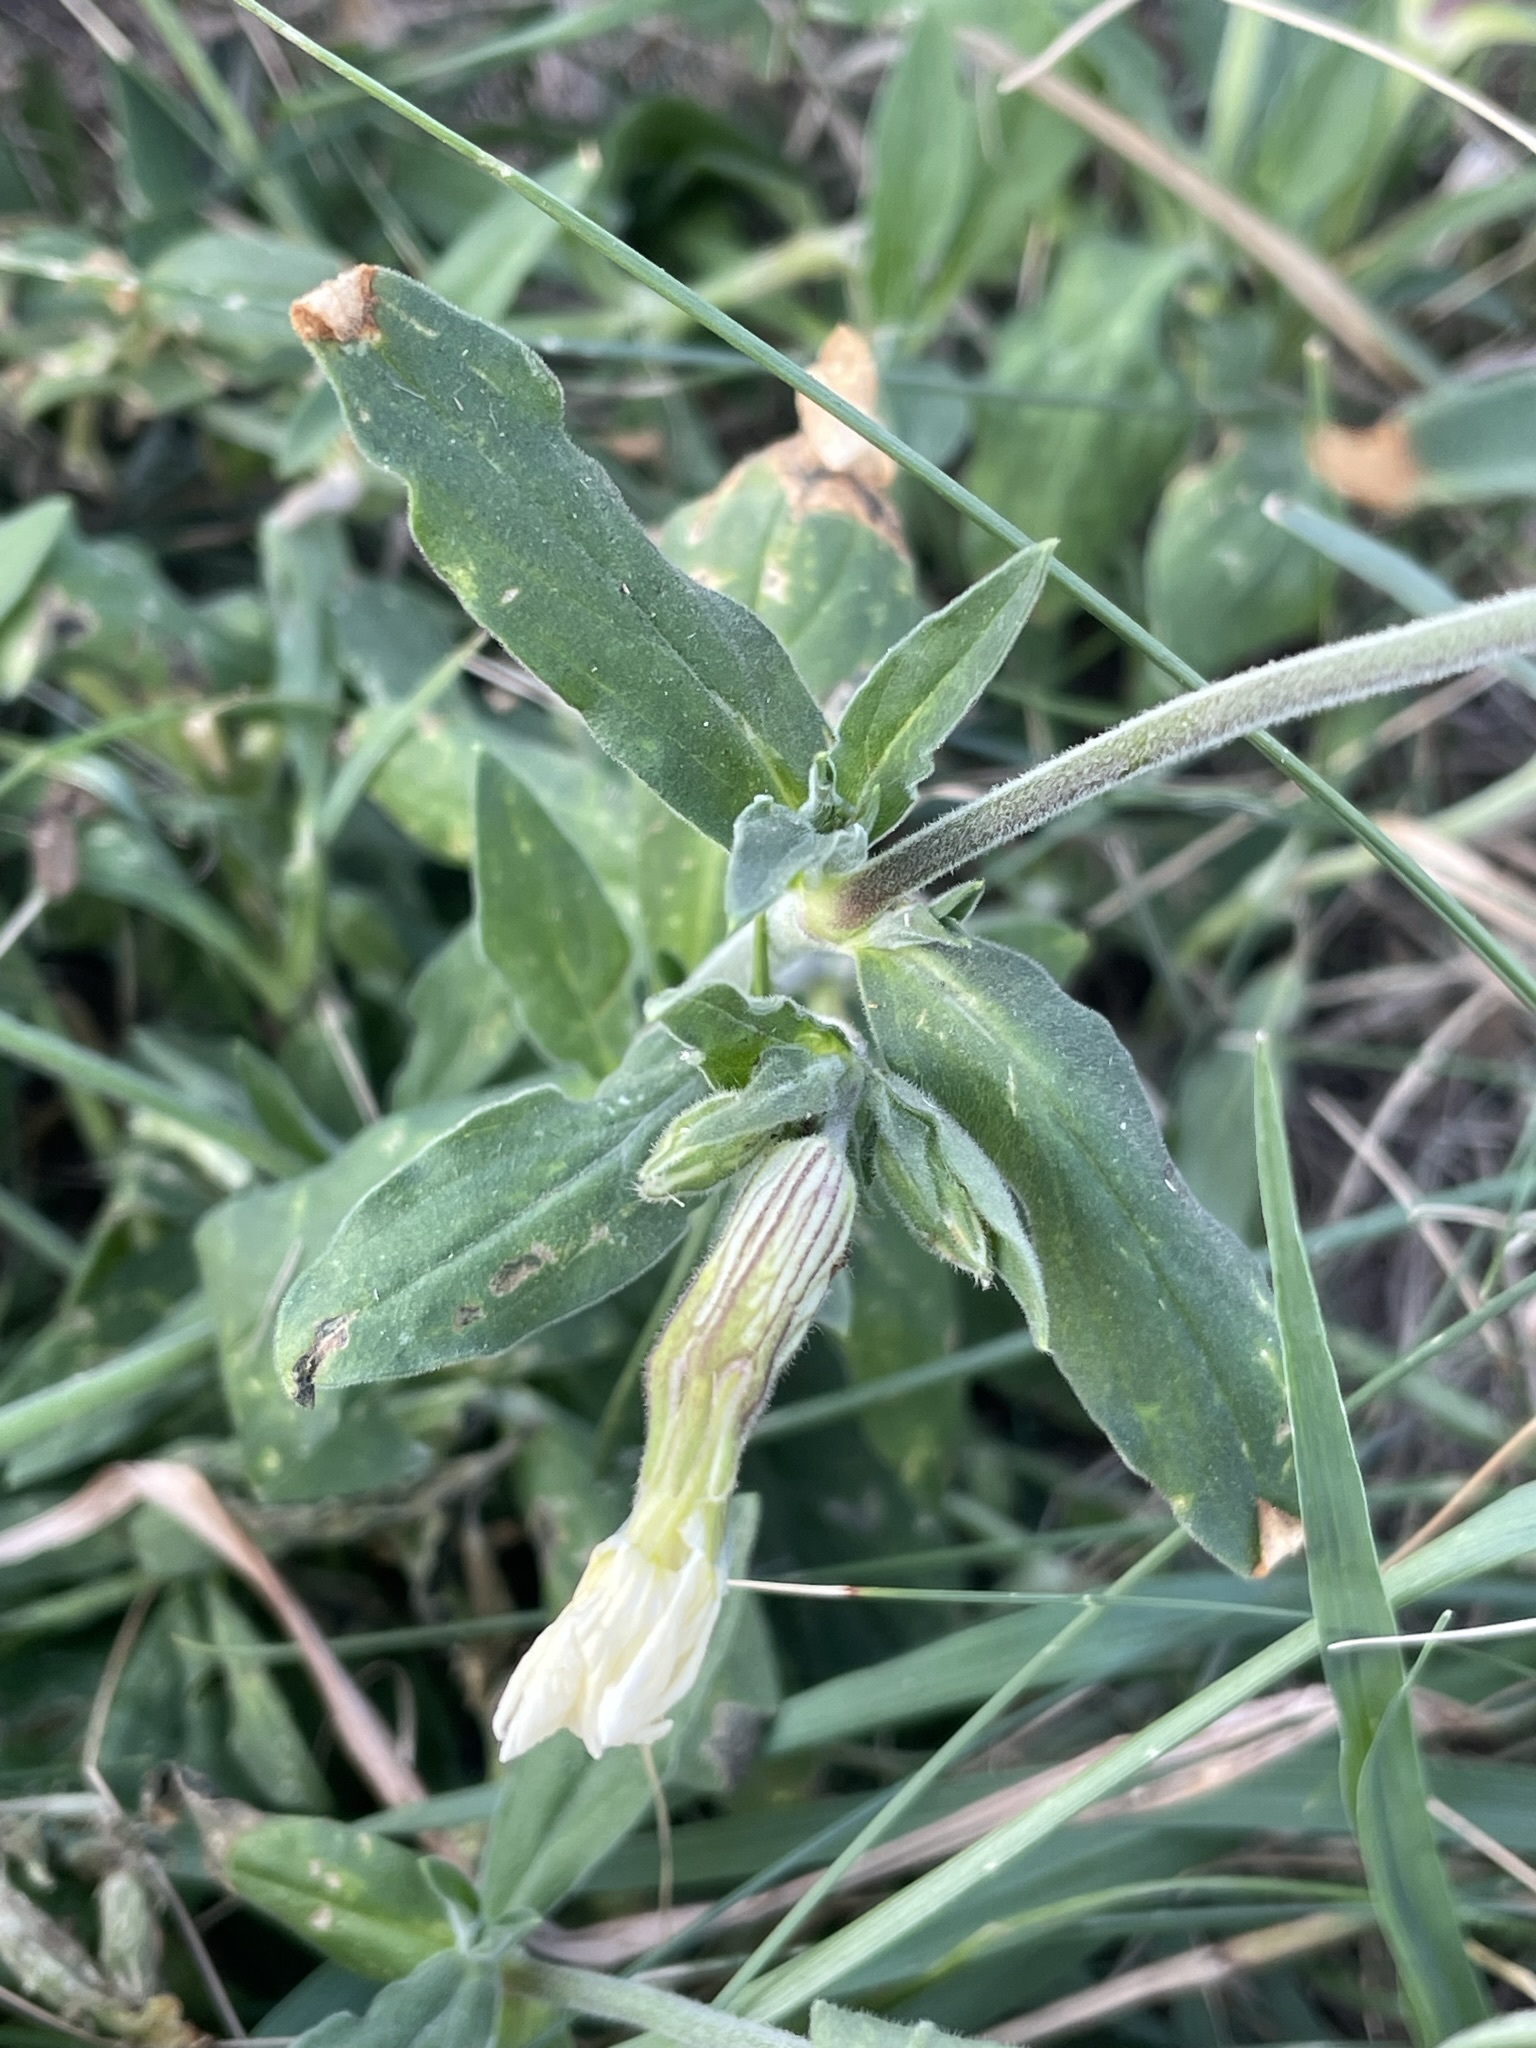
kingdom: Plantae
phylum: Tracheophyta
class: Magnoliopsida
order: Caryophyllales
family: Caryophyllaceae
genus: Silene
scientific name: Silene latifolia
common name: White campion
